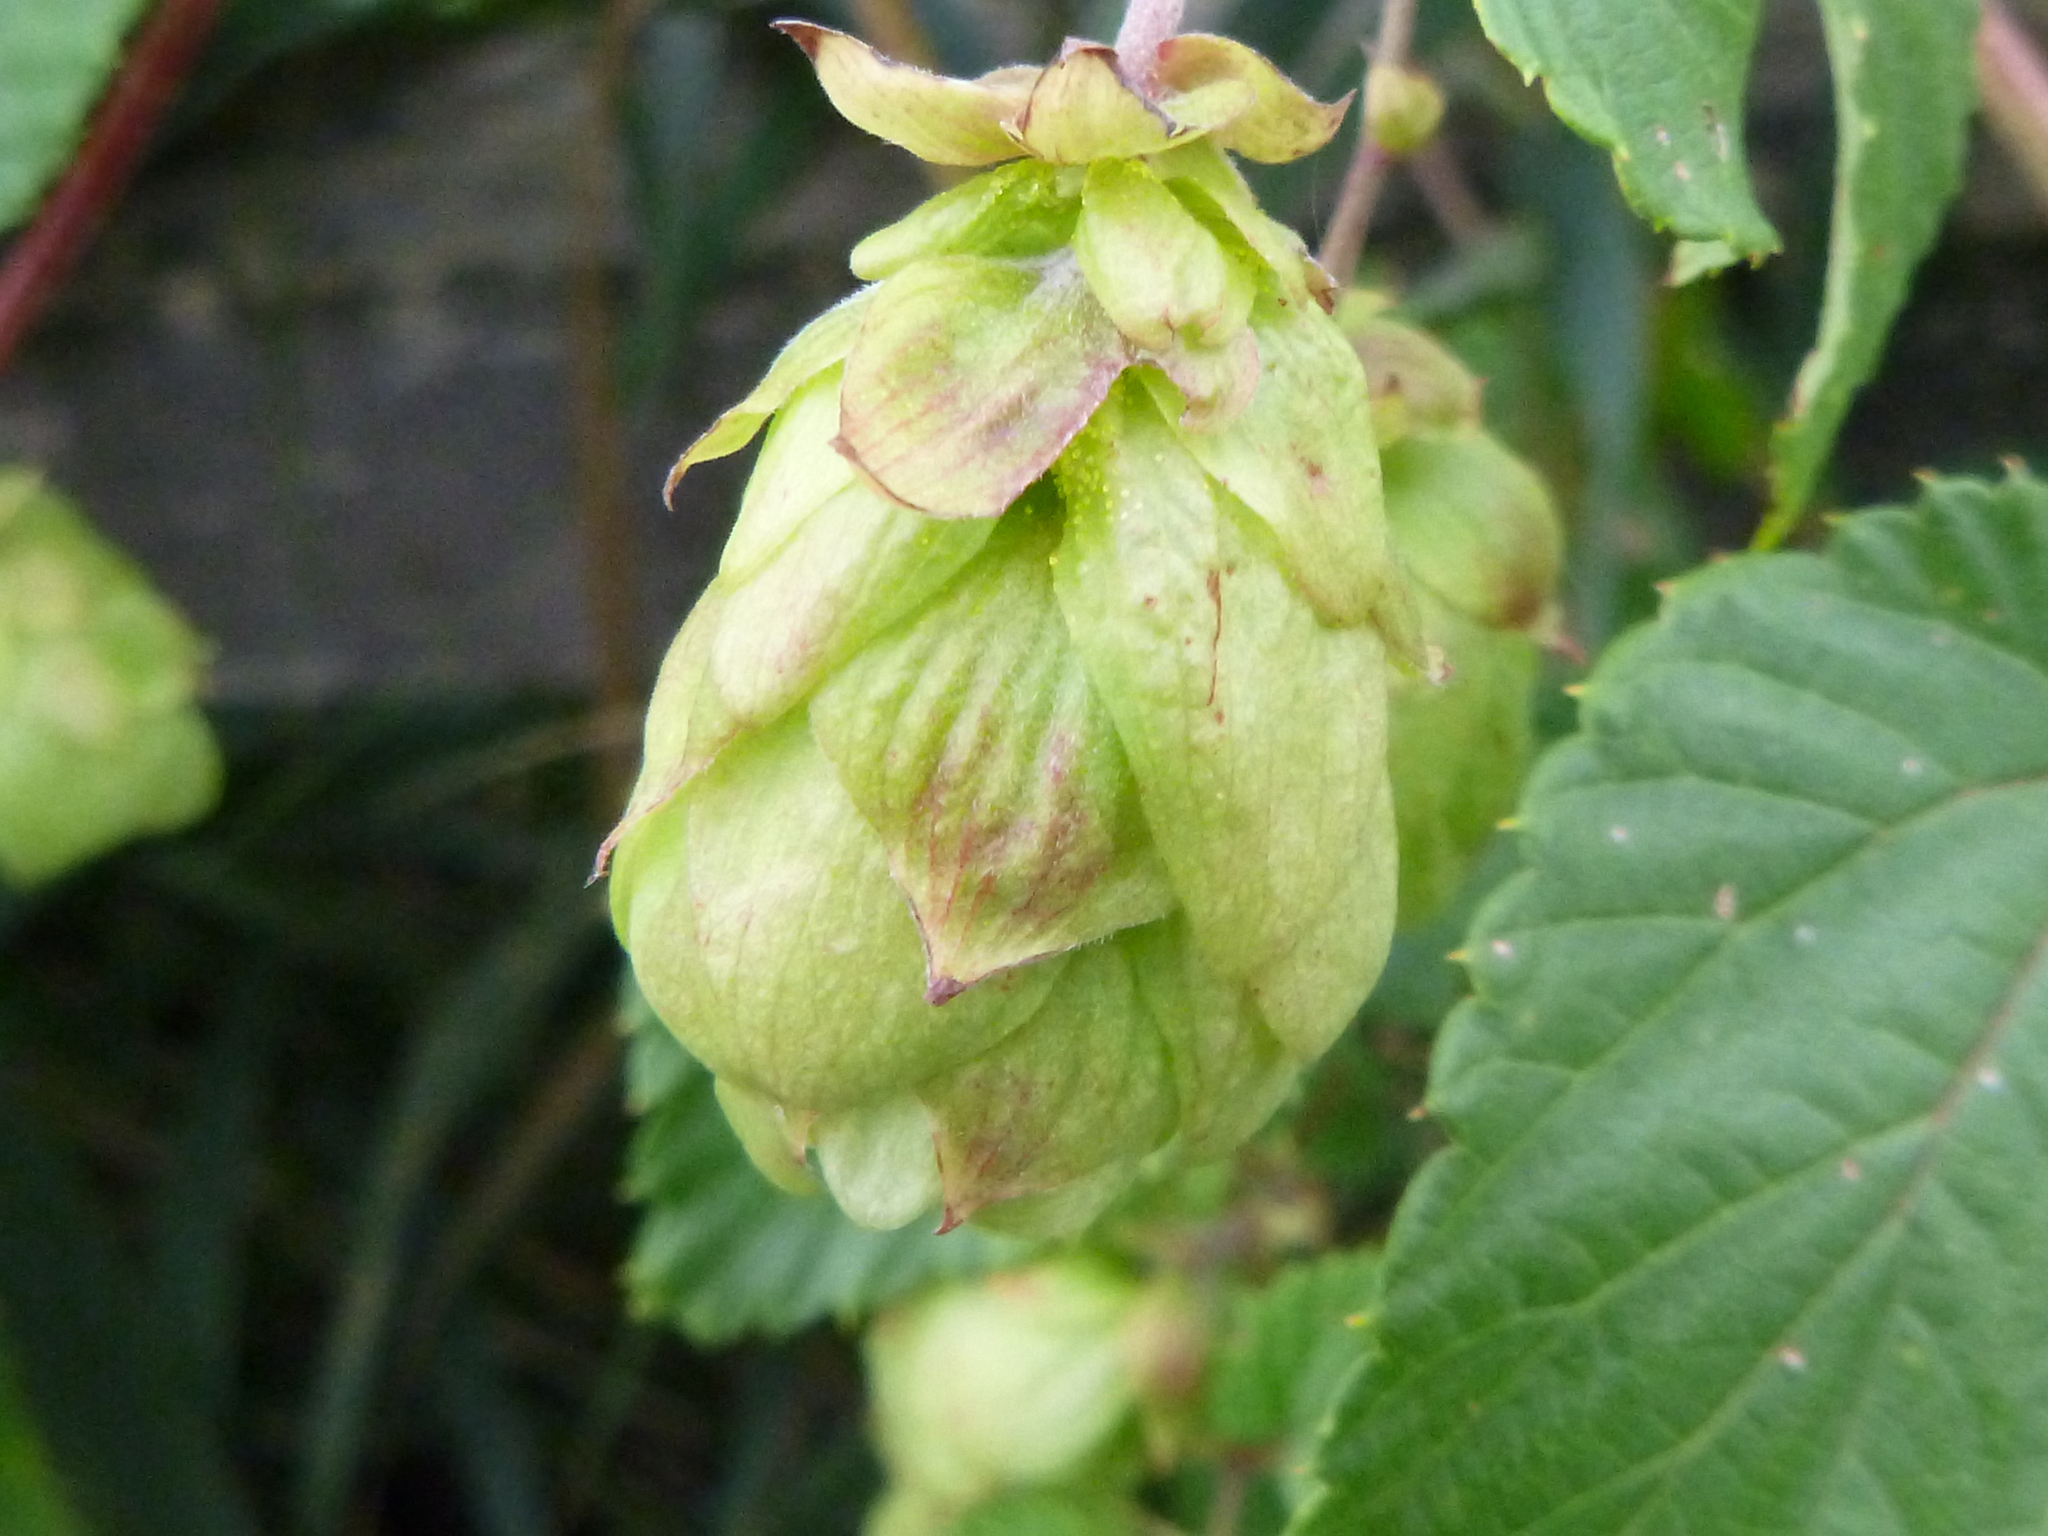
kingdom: Plantae
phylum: Tracheophyta
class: Magnoliopsida
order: Rosales
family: Cannabaceae
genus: Humulus
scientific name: Humulus lupulus
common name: Hop
